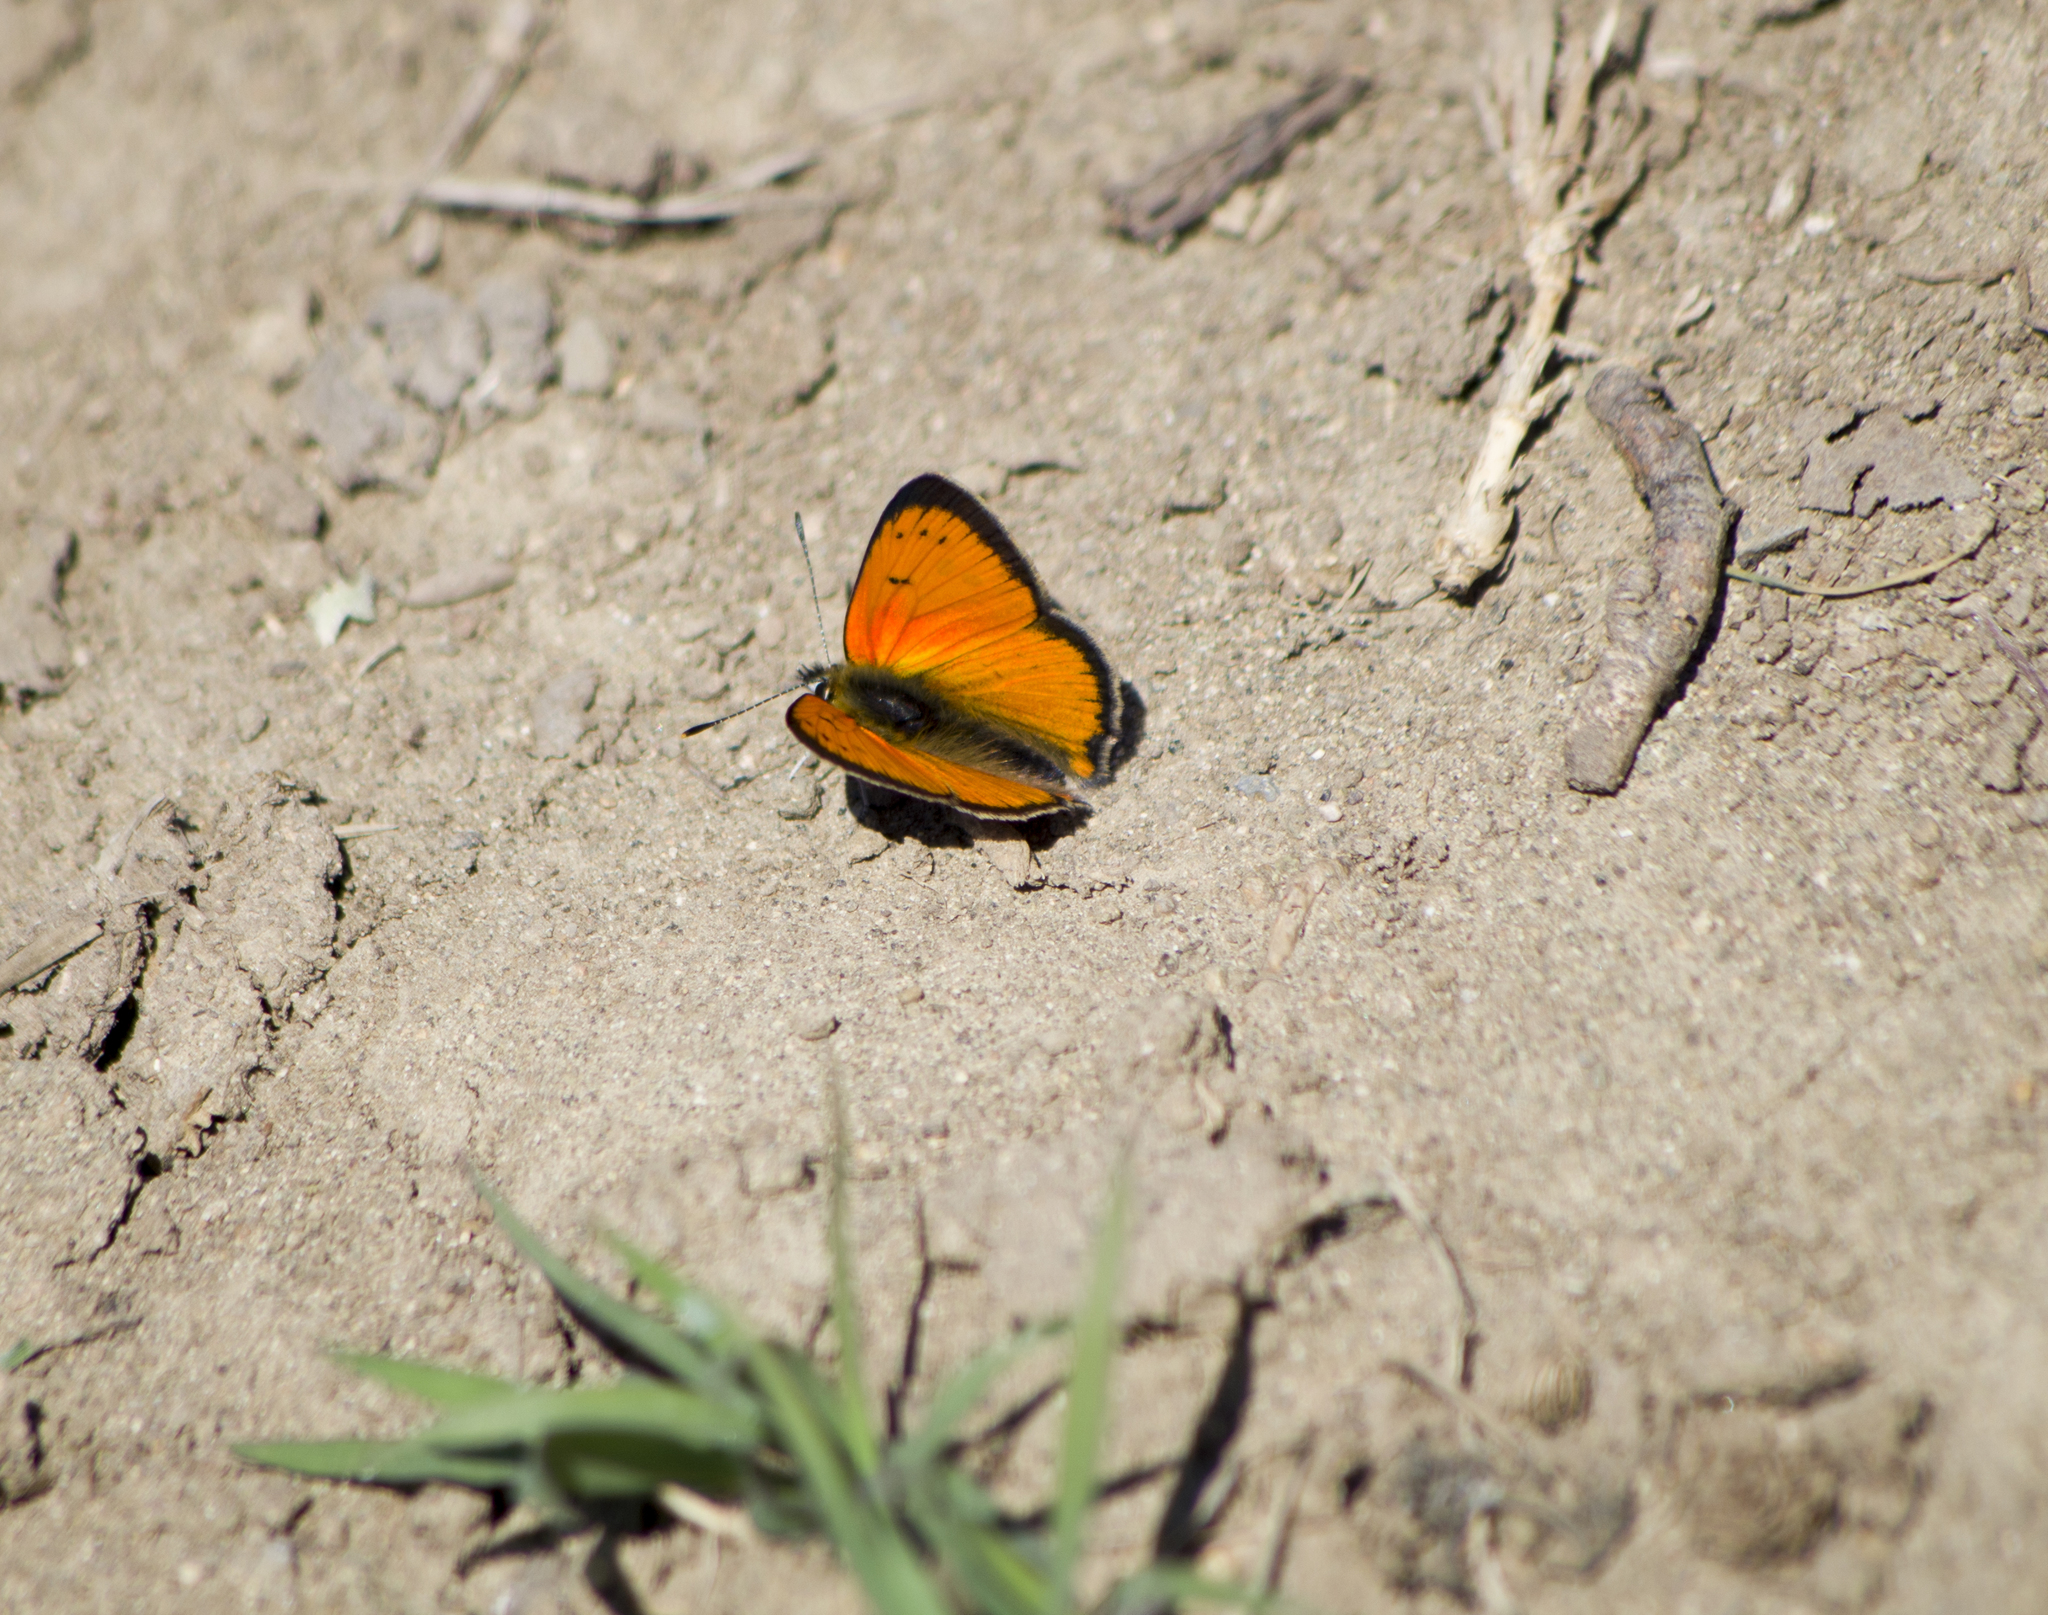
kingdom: Animalia
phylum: Arthropoda
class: Insecta
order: Lepidoptera
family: Lycaenidae
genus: Polyommatus
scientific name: Polyommatus ottomanus
